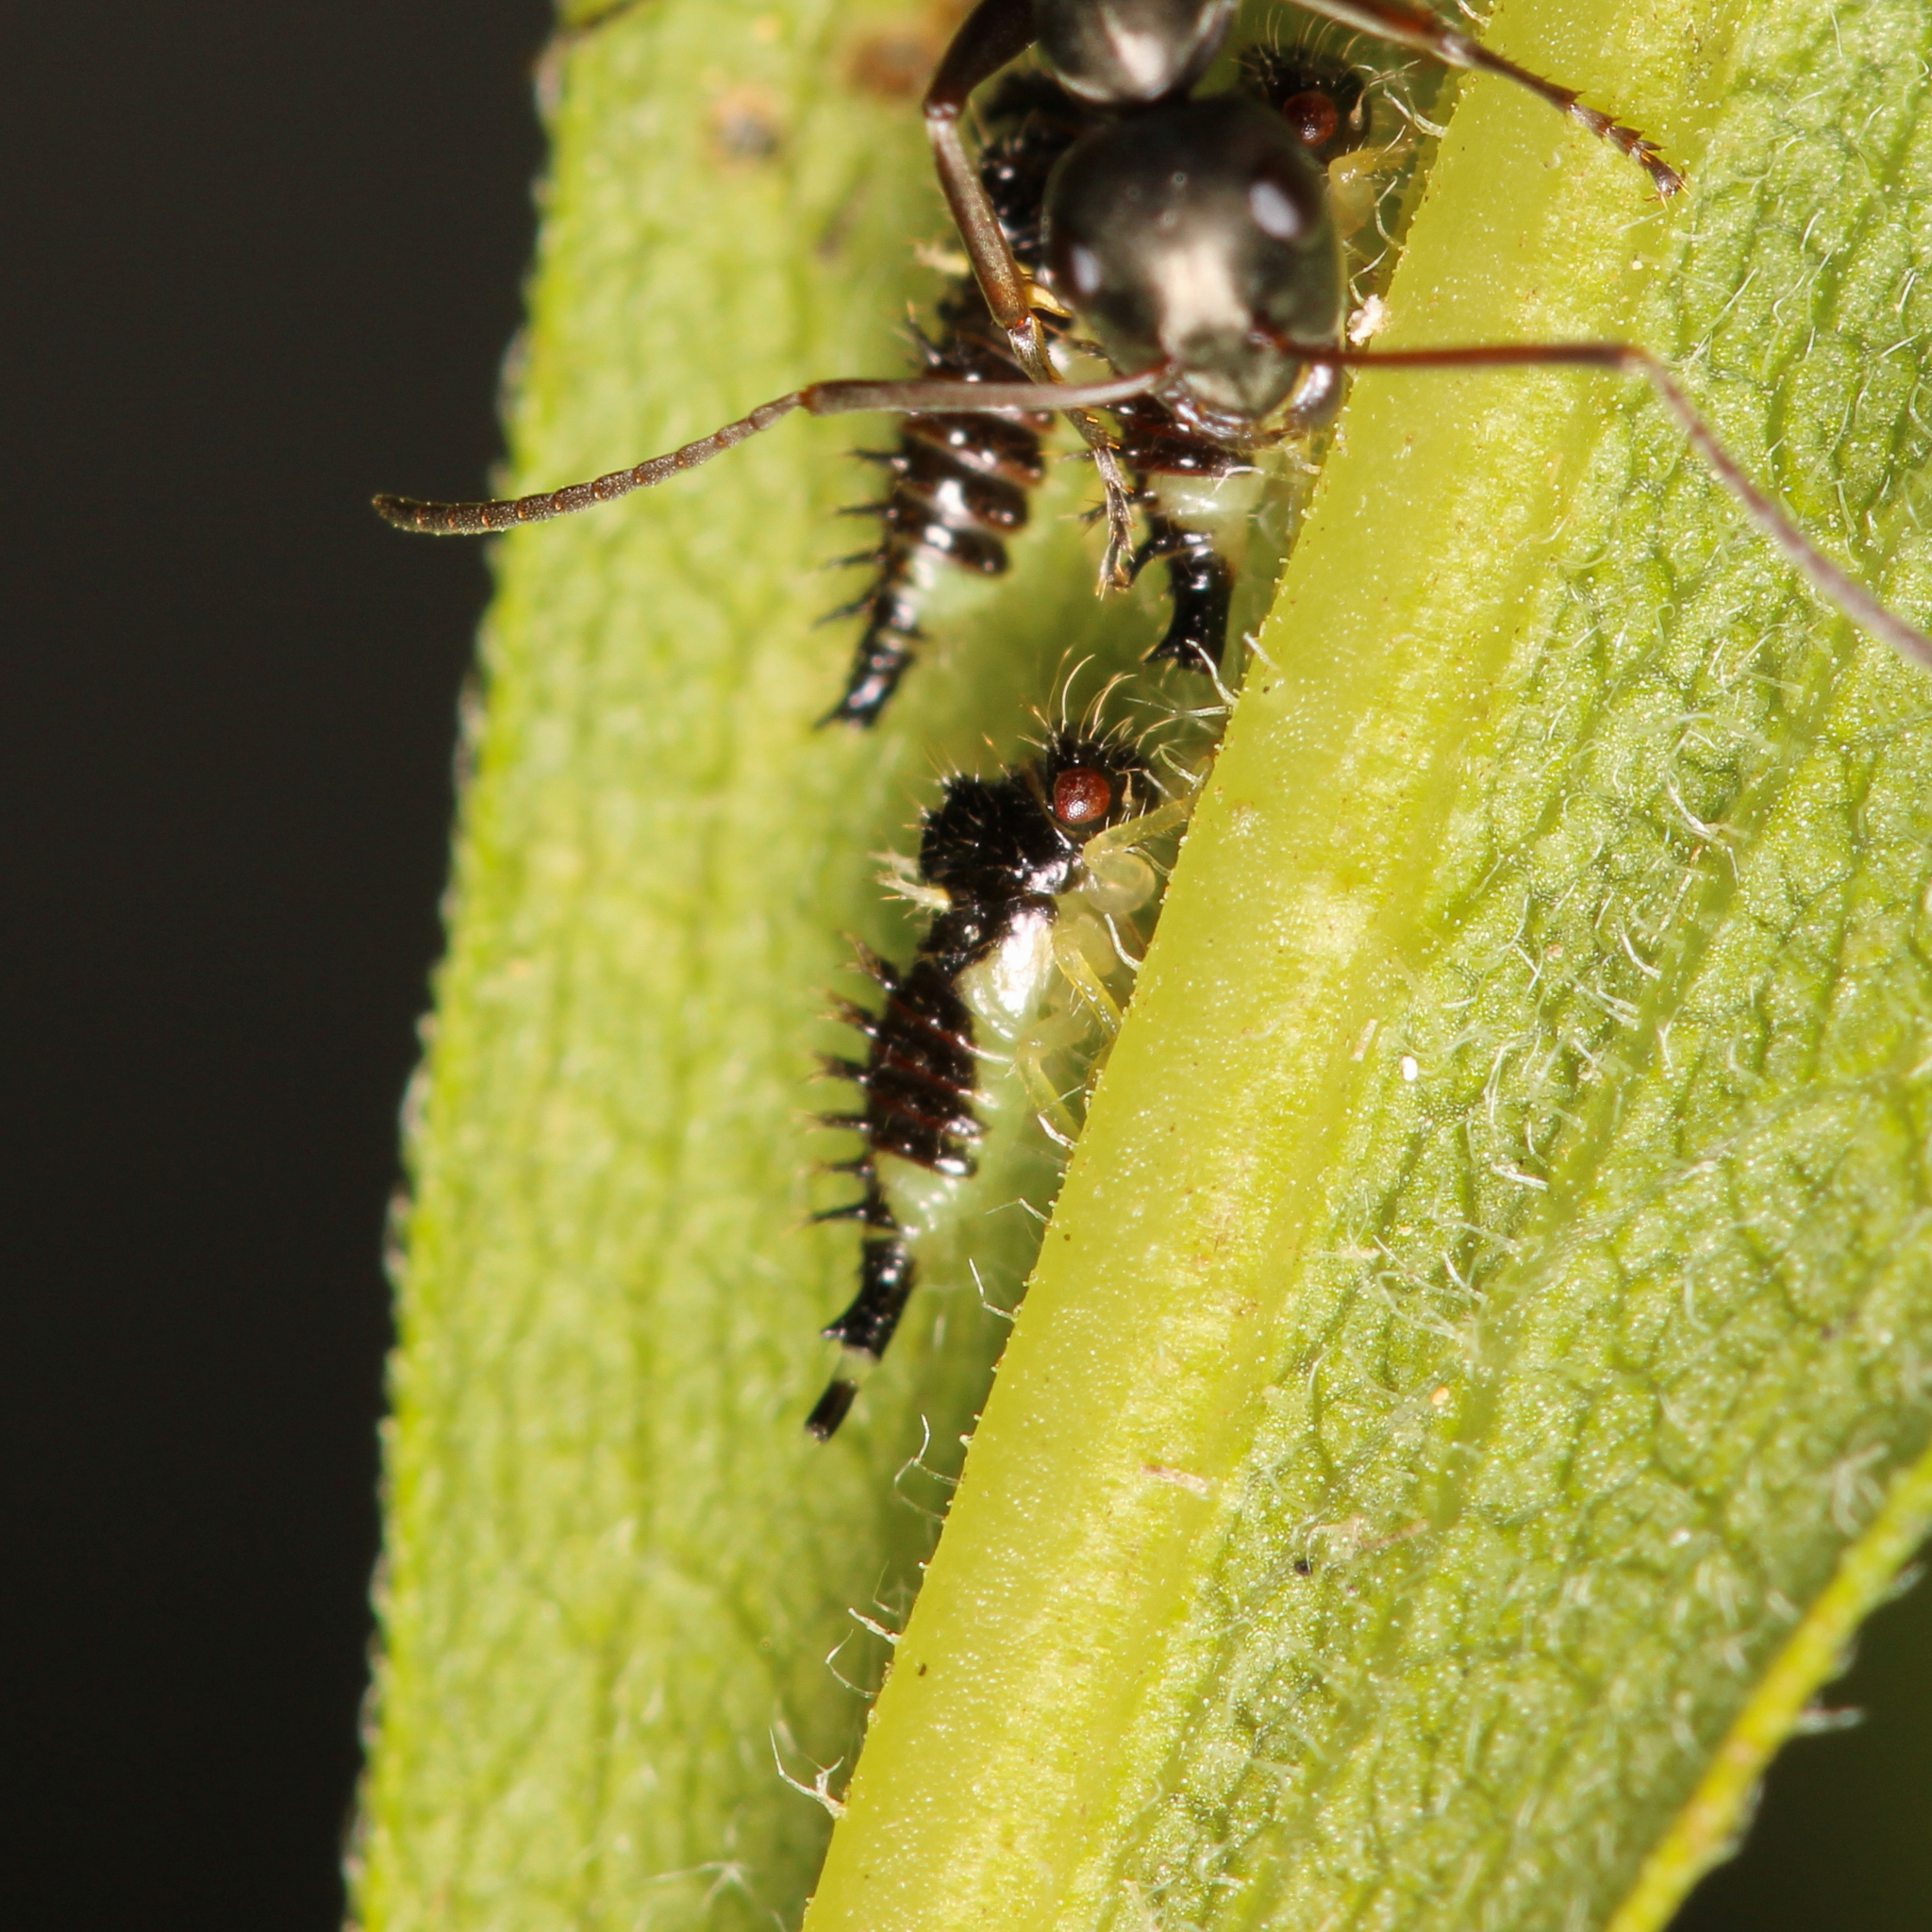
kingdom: Animalia
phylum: Arthropoda
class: Insecta
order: Hemiptera
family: Membracidae
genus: Entylia
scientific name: Entylia carinata
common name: Keeled treehopper
